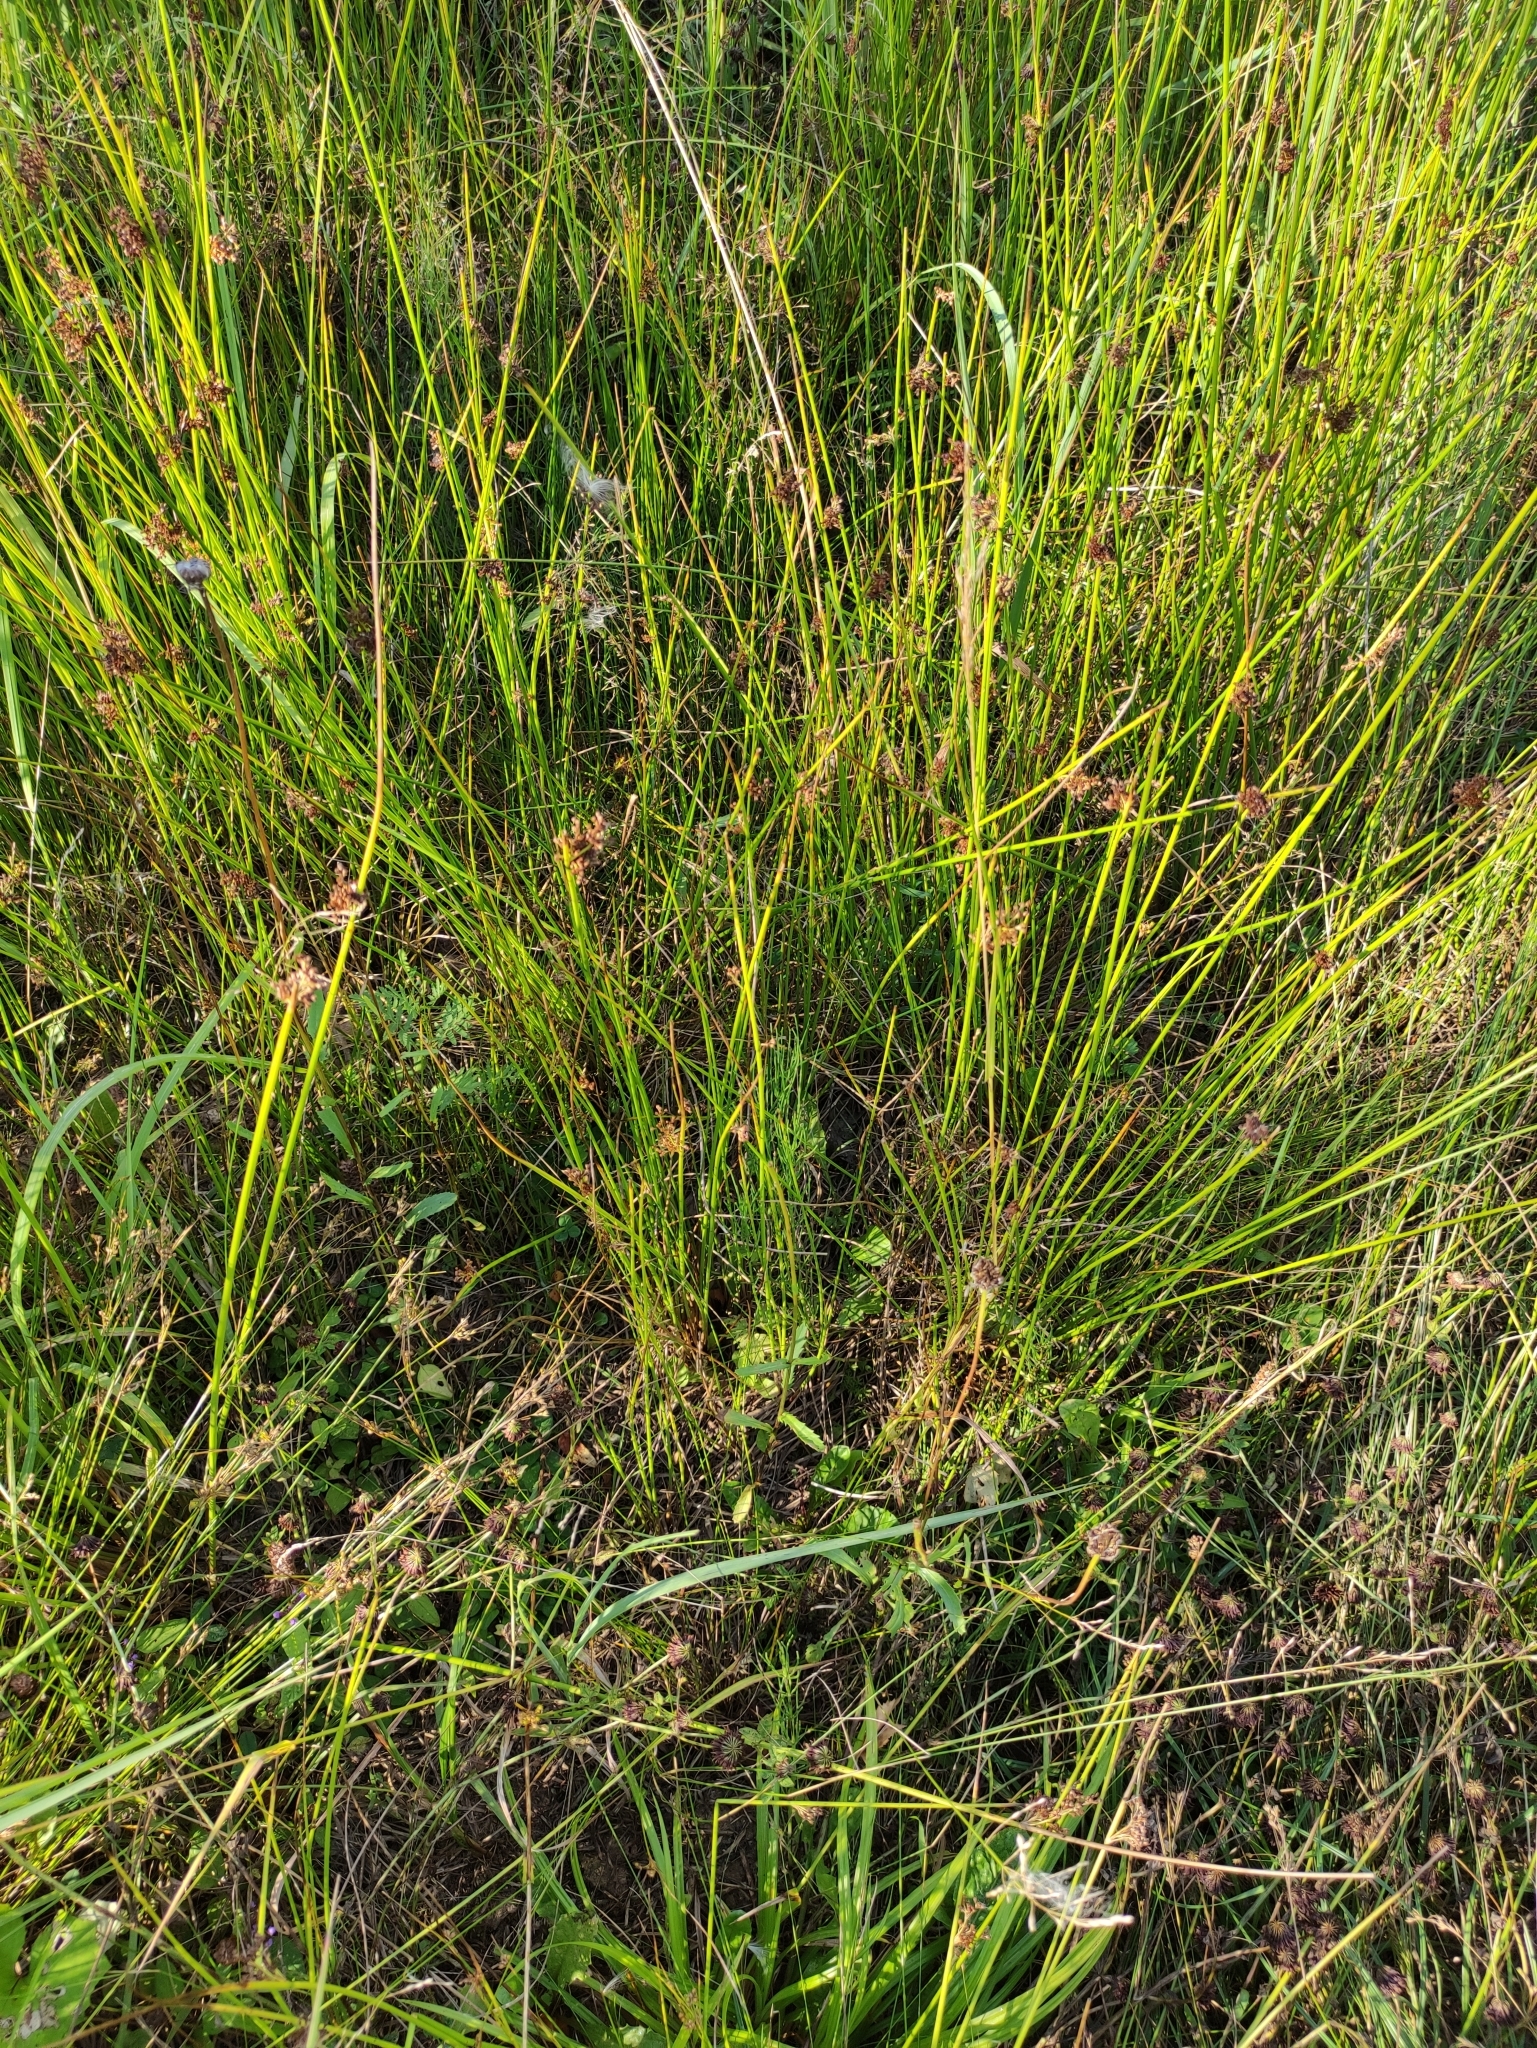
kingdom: Plantae
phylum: Tracheophyta
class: Liliopsida
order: Poales
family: Juncaceae
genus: Juncus
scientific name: Juncus effusus
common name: Soft rush
